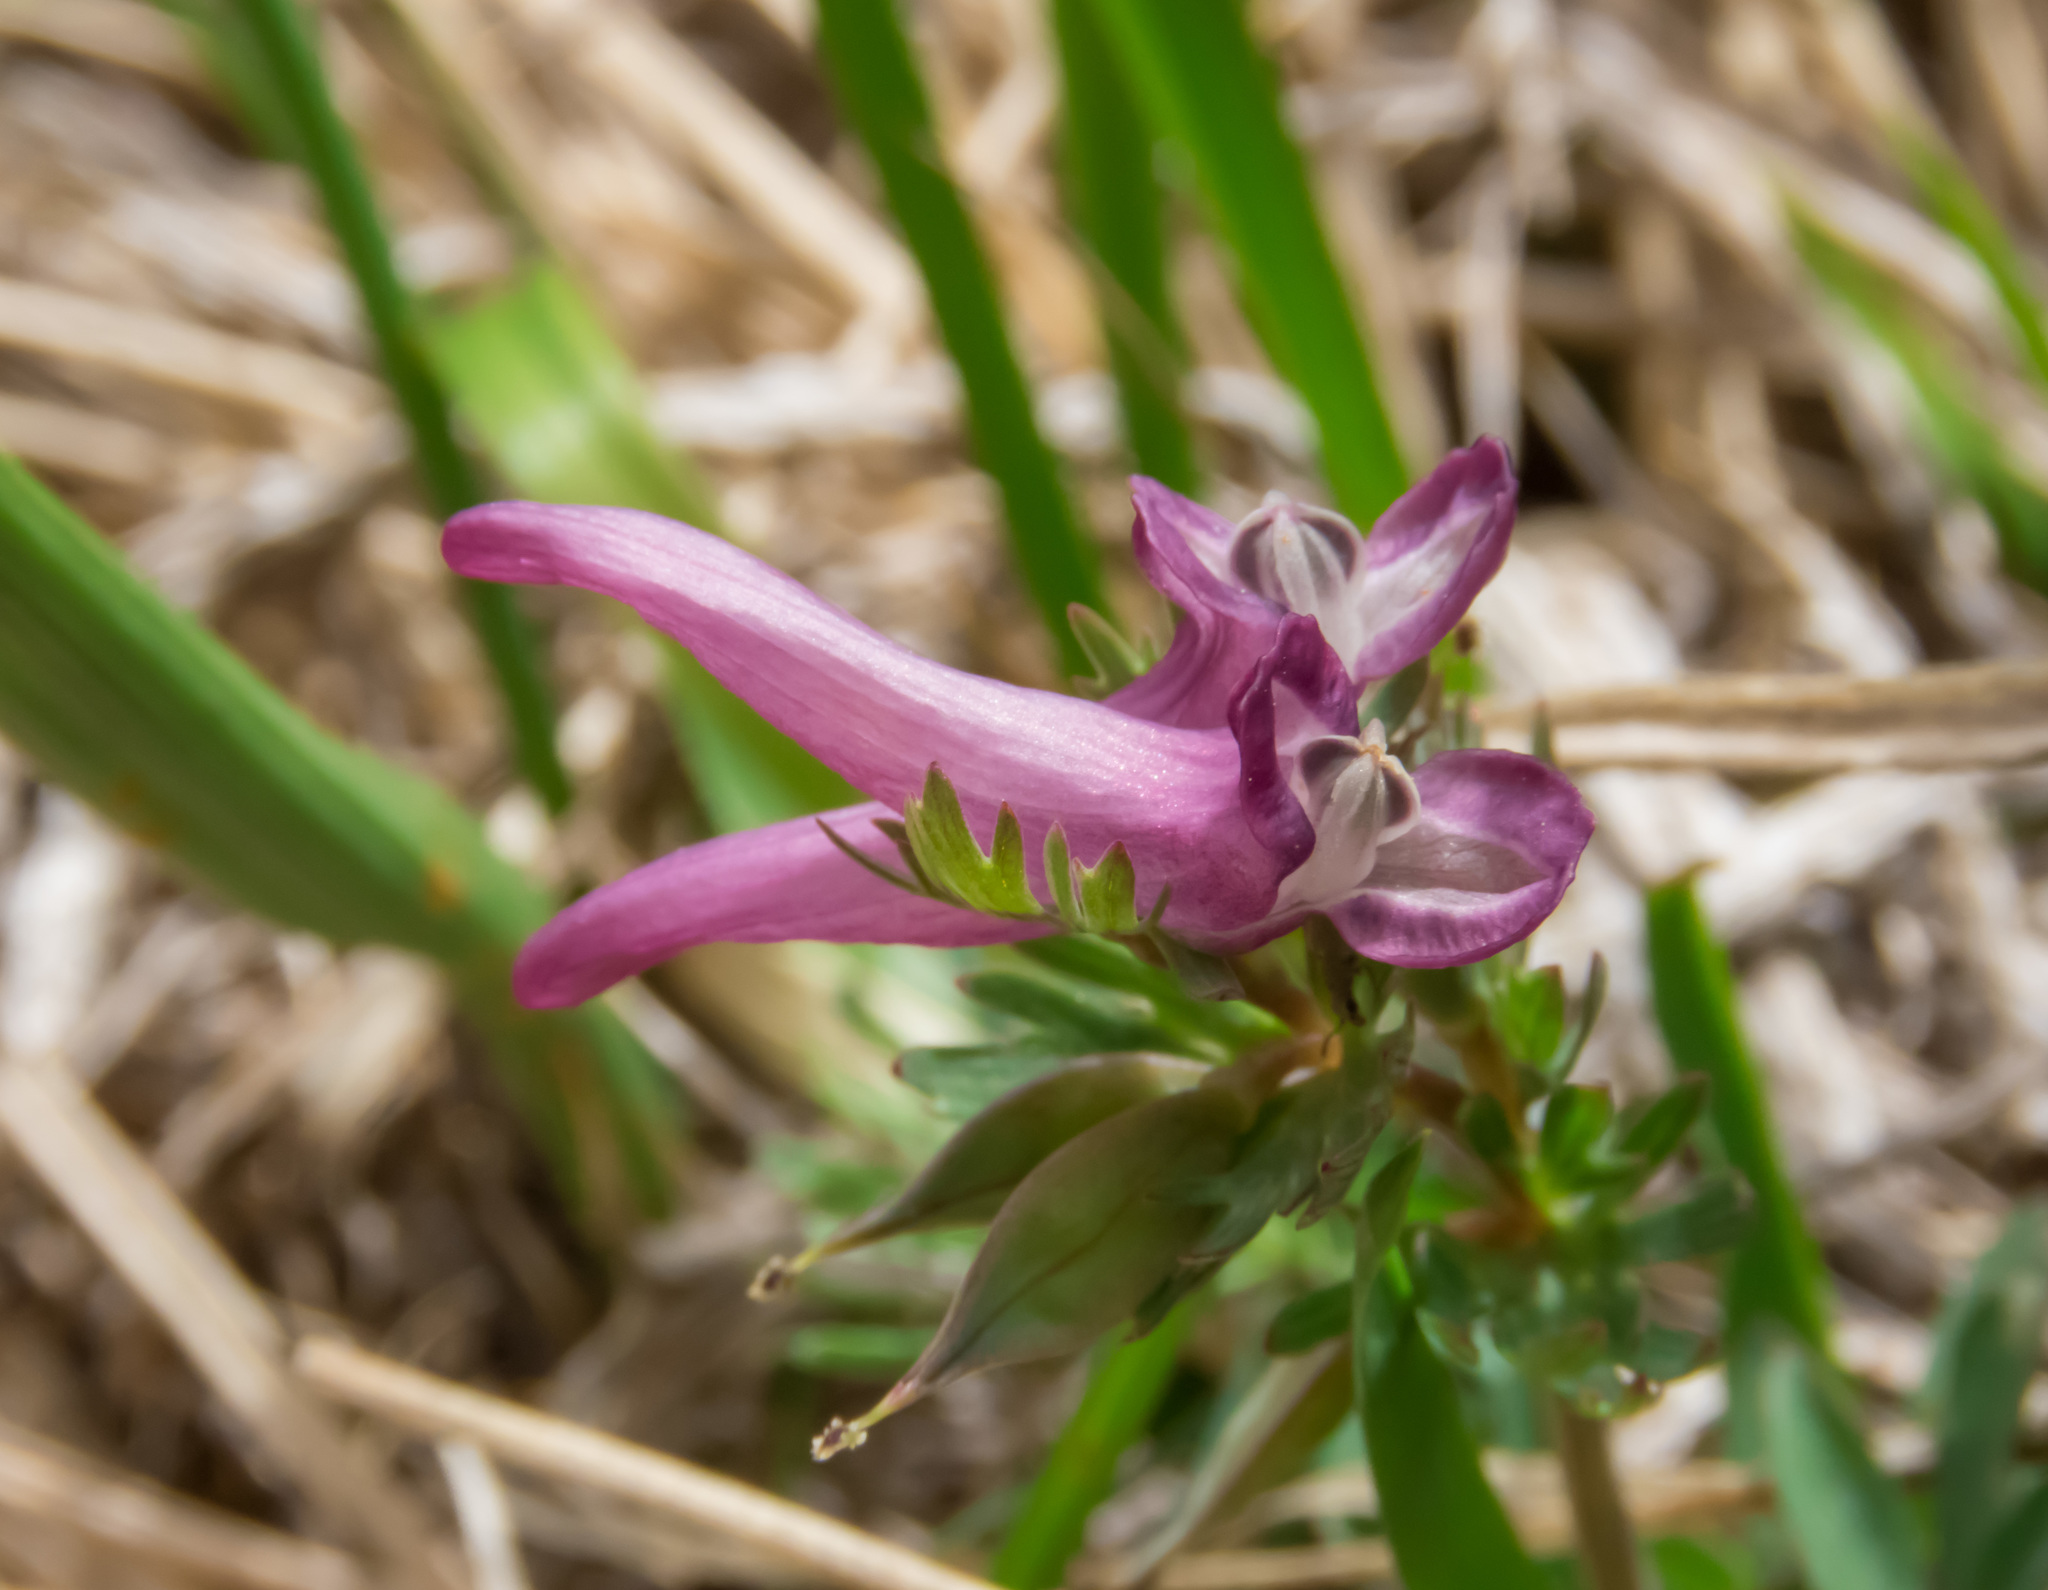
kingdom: Plantae
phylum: Tracheophyta
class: Magnoliopsida
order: Ranunculales
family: Papaveraceae
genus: Corydalis
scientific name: Corydalis densiflora
